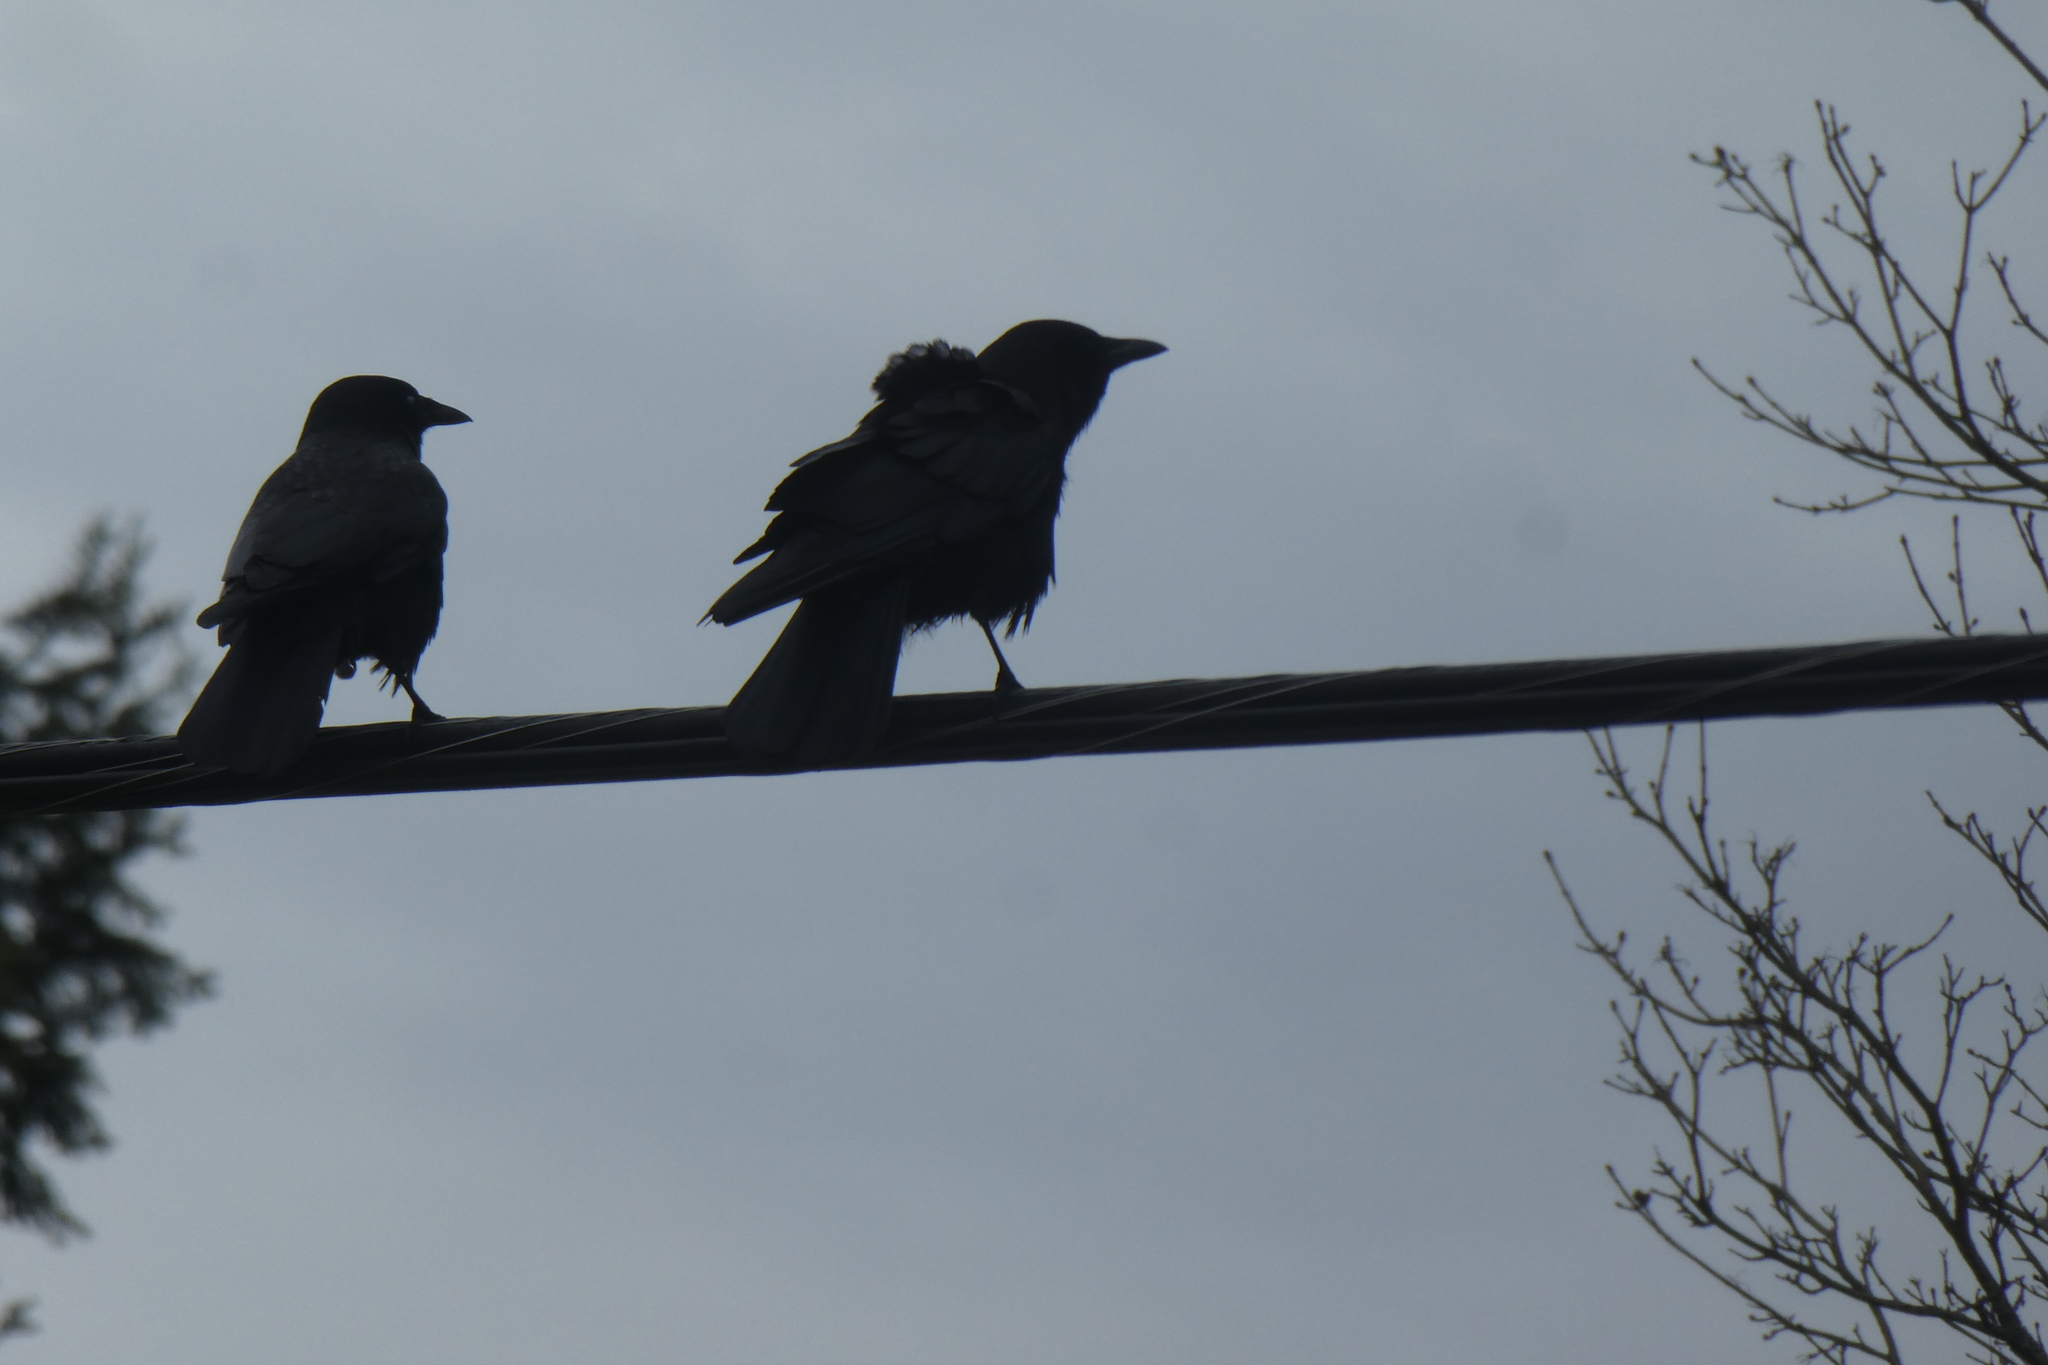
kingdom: Animalia
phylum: Chordata
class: Aves
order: Passeriformes
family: Corvidae
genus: Corvus
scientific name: Corvus brachyrhynchos
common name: American crow
